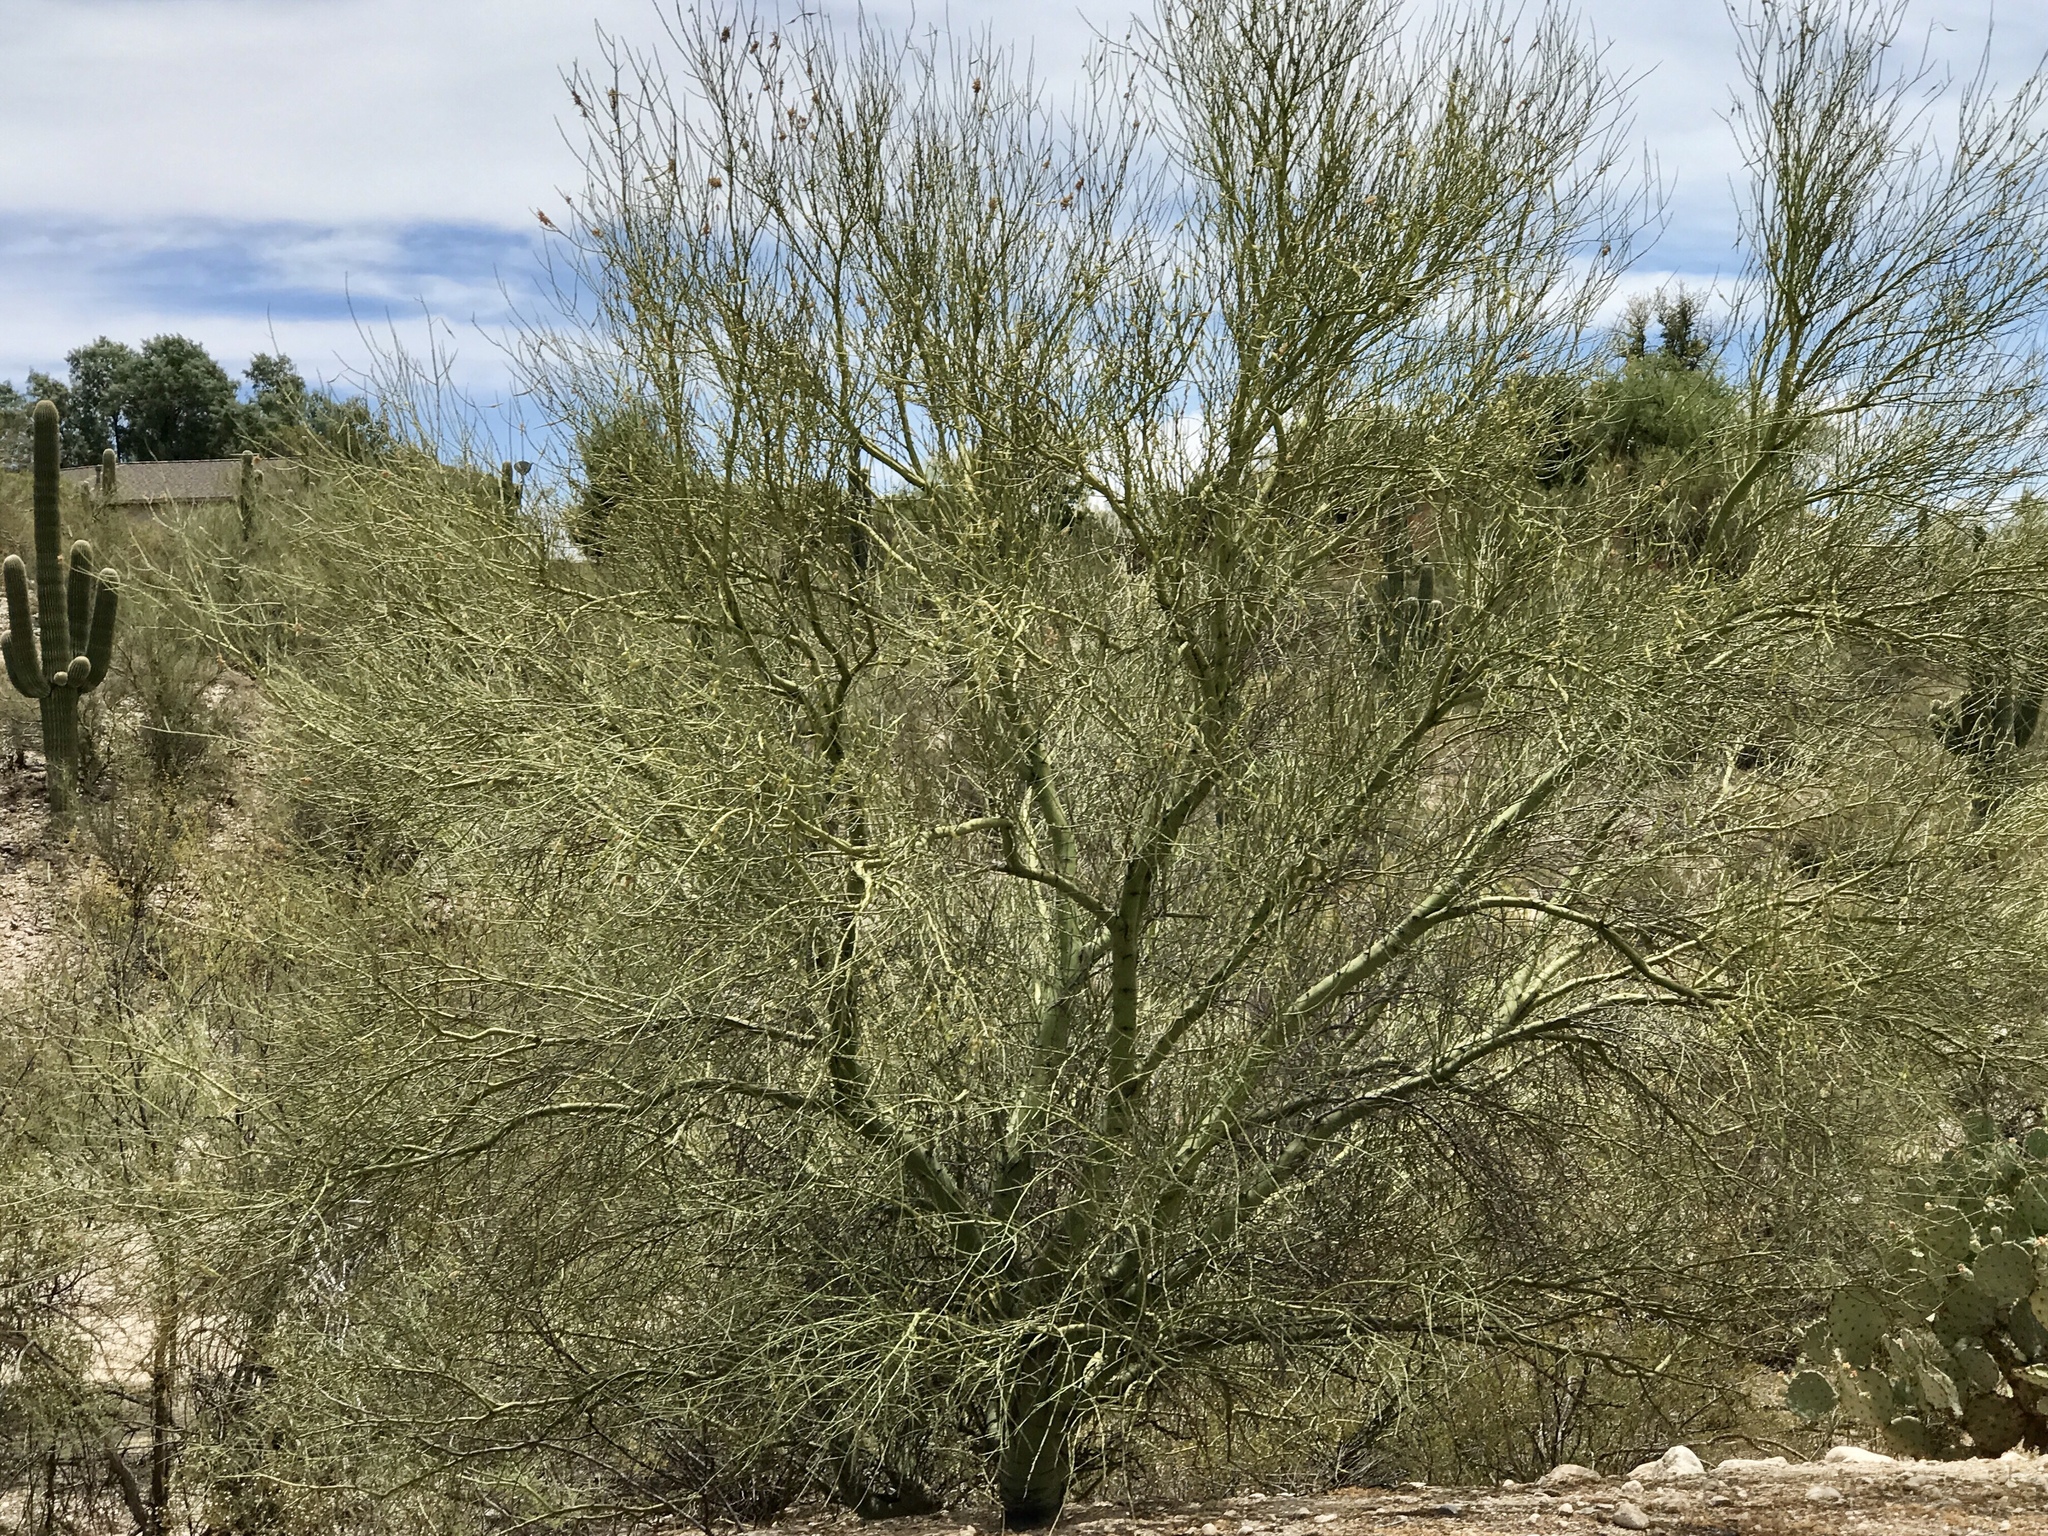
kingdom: Plantae
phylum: Tracheophyta
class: Magnoliopsida
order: Fabales
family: Fabaceae
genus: Parkinsonia
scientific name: Parkinsonia microphylla
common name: Yellow paloverde
